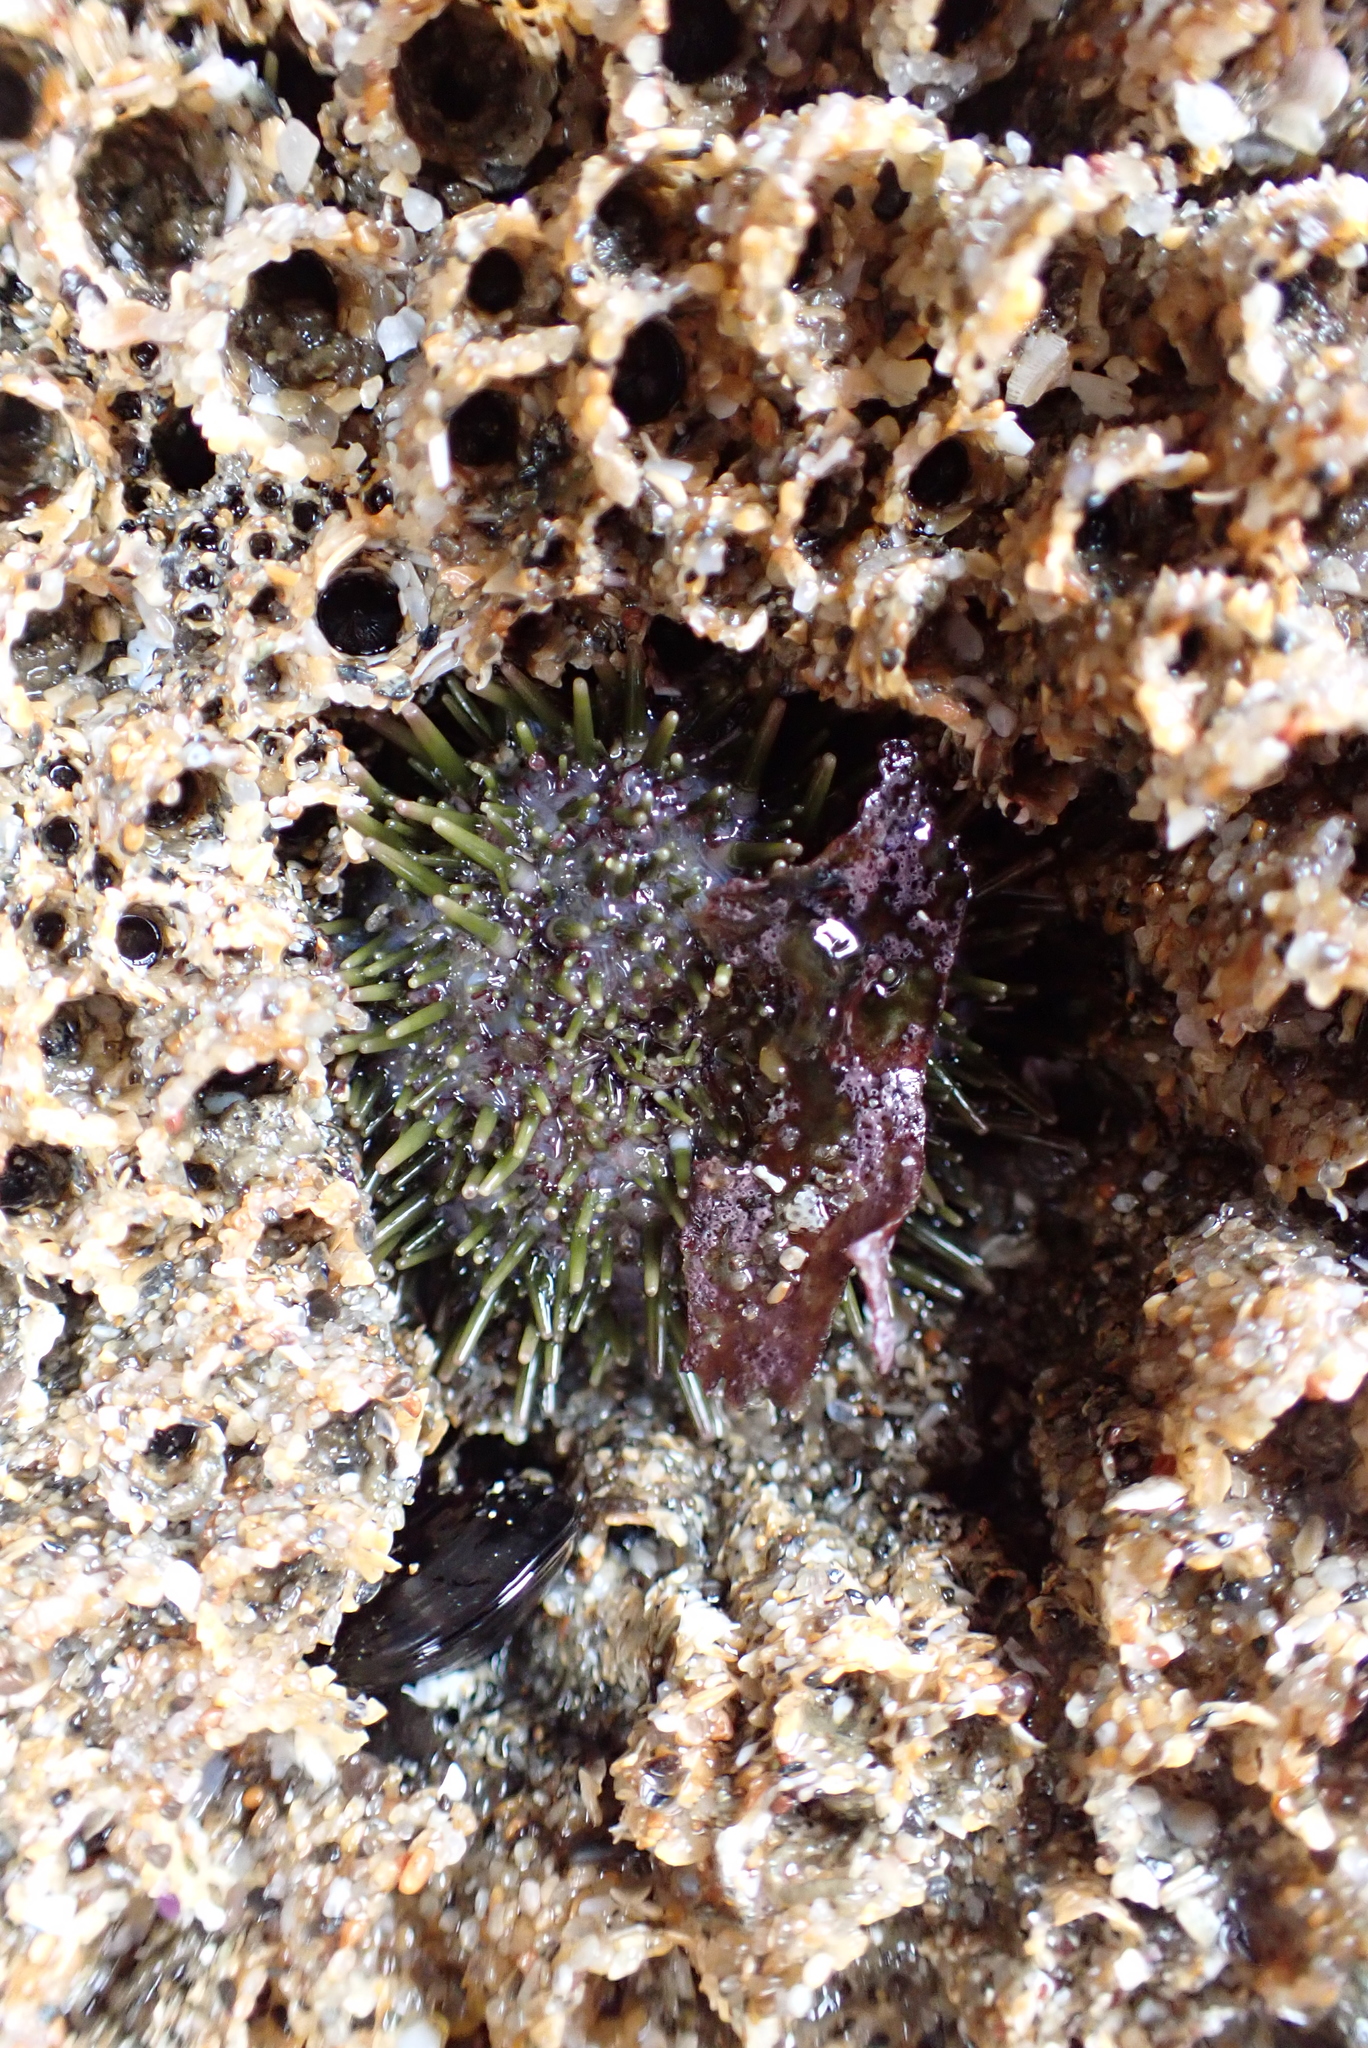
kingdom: Animalia
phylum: Echinodermata
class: Echinoidea
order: Camarodonta
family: Strongylocentrotidae
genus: Strongylocentrotus
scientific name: Strongylocentrotus purpuratus
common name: Purple sea urchin
